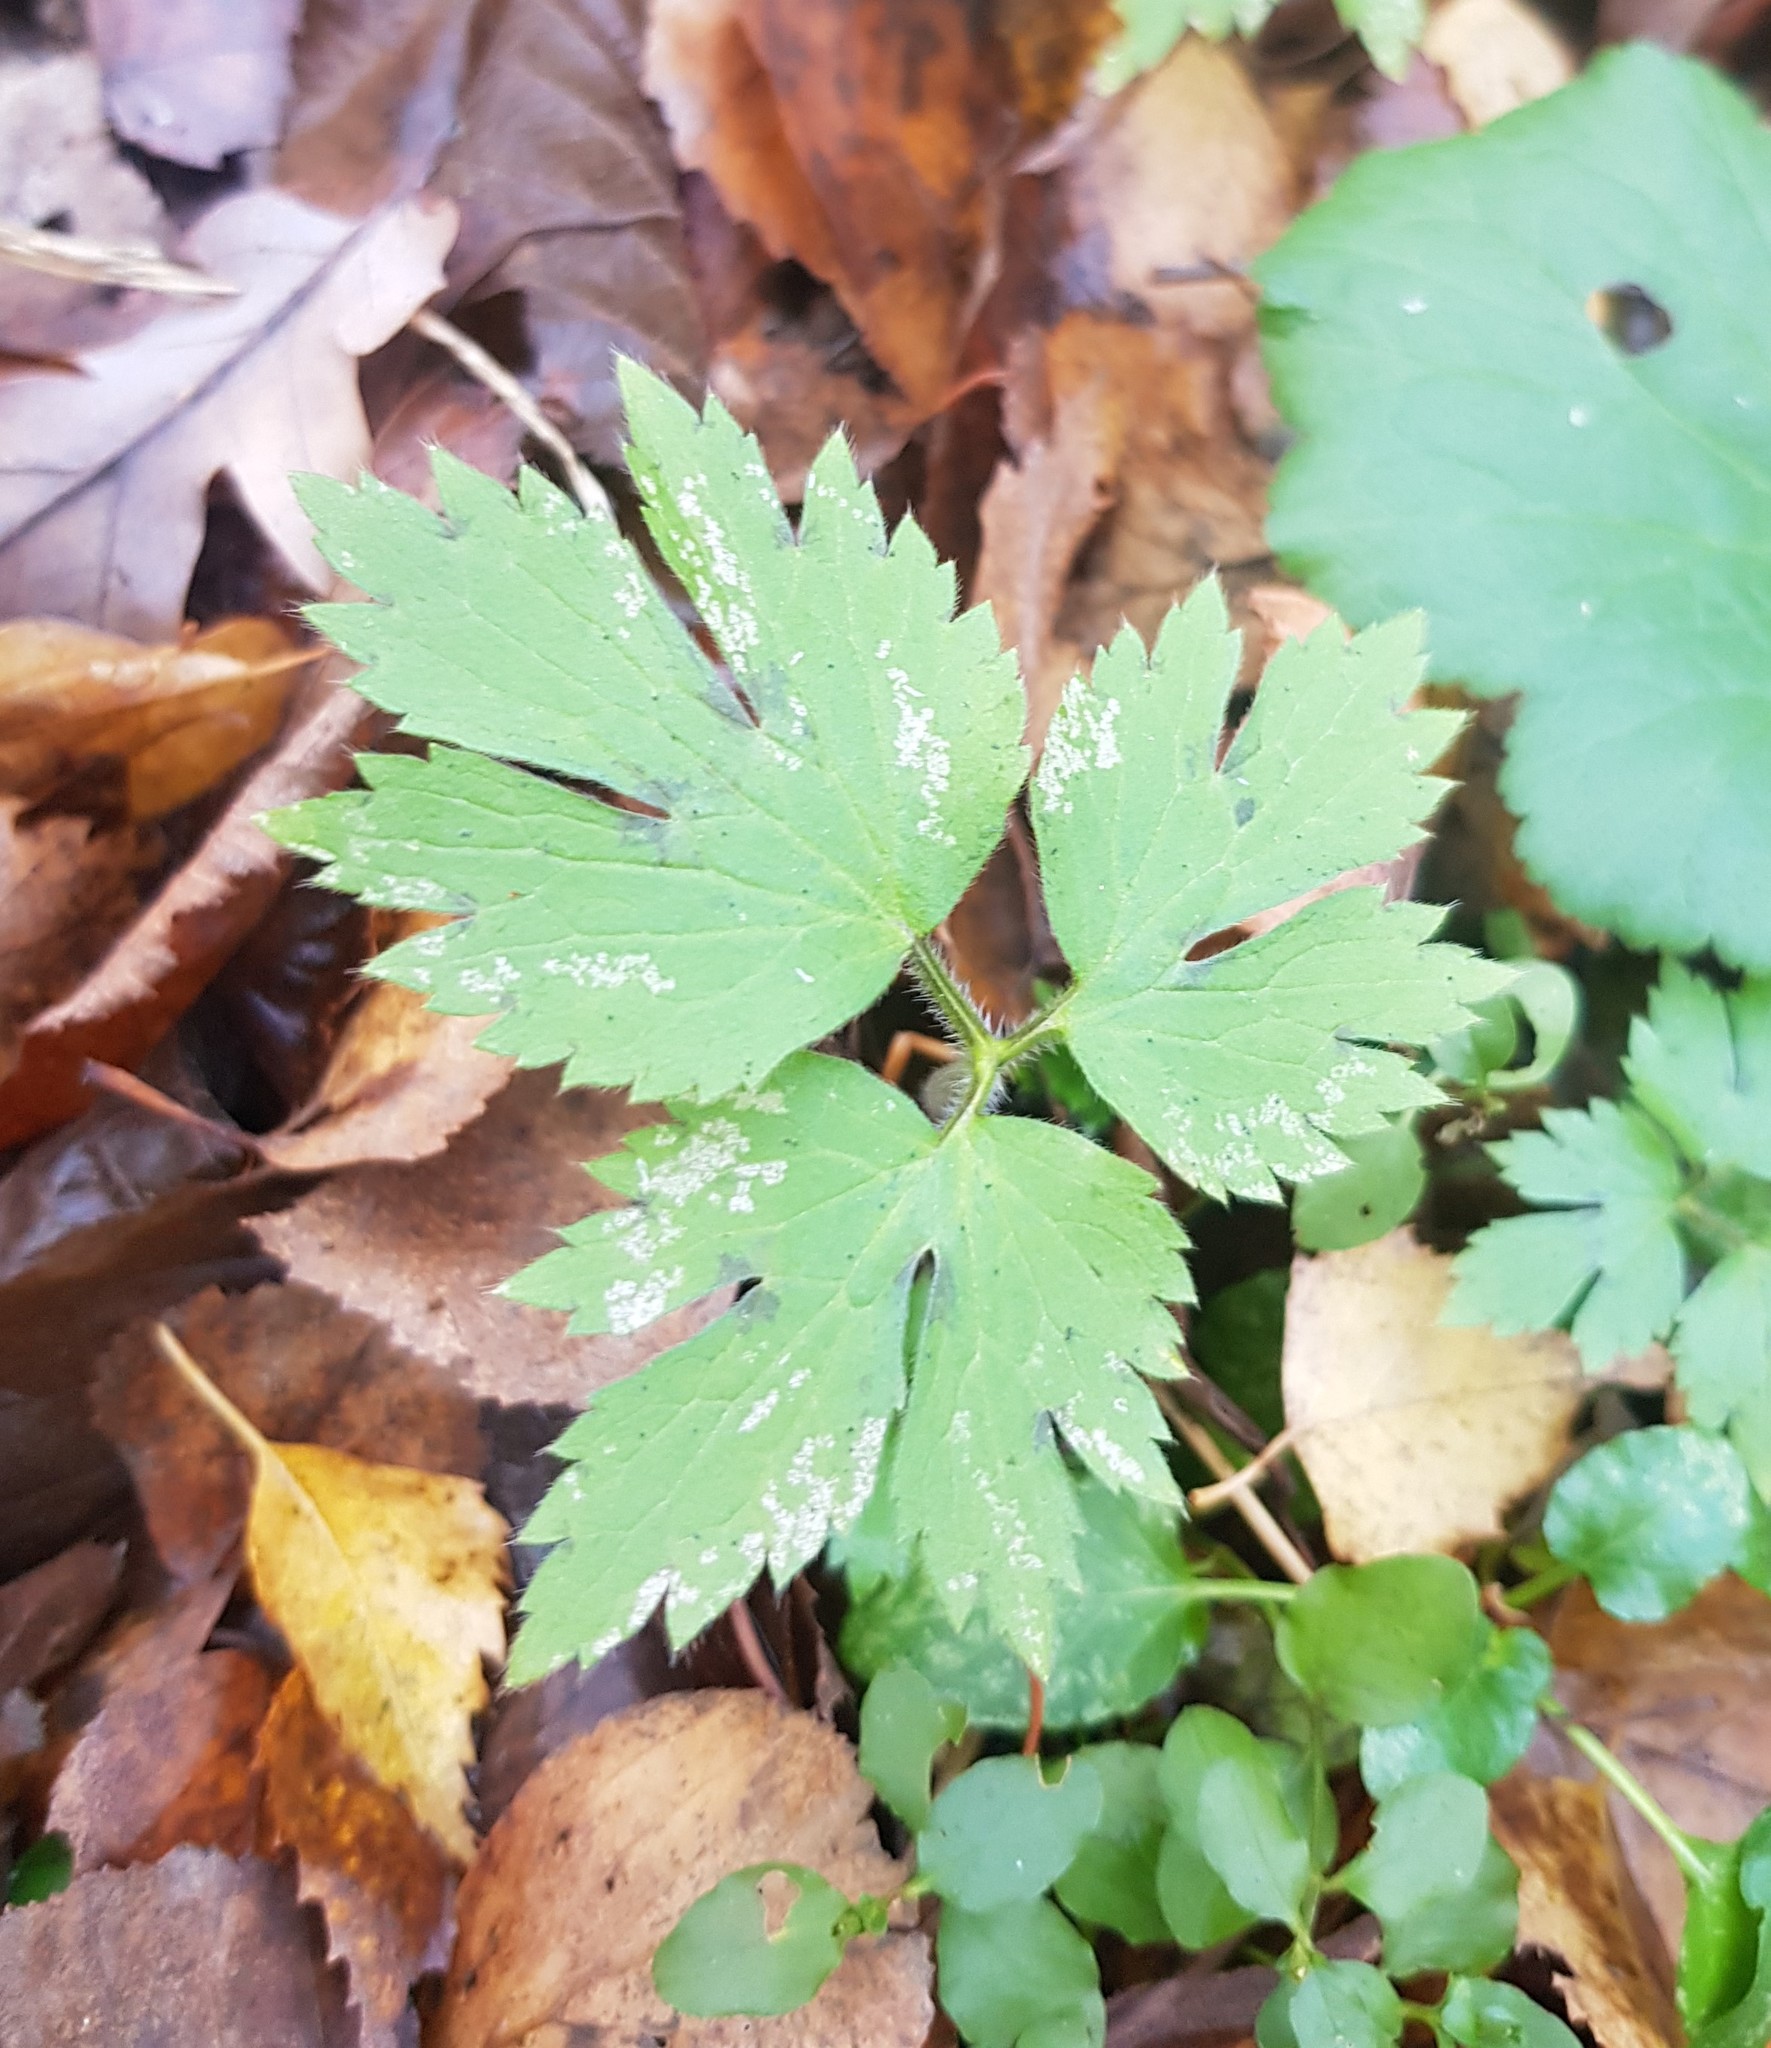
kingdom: Plantae
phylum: Tracheophyta
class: Magnoliopsida
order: Ranunculales
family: Ranunculaceae
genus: Ranunculus
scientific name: Ranunculus repens
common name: Creeping buttercup
